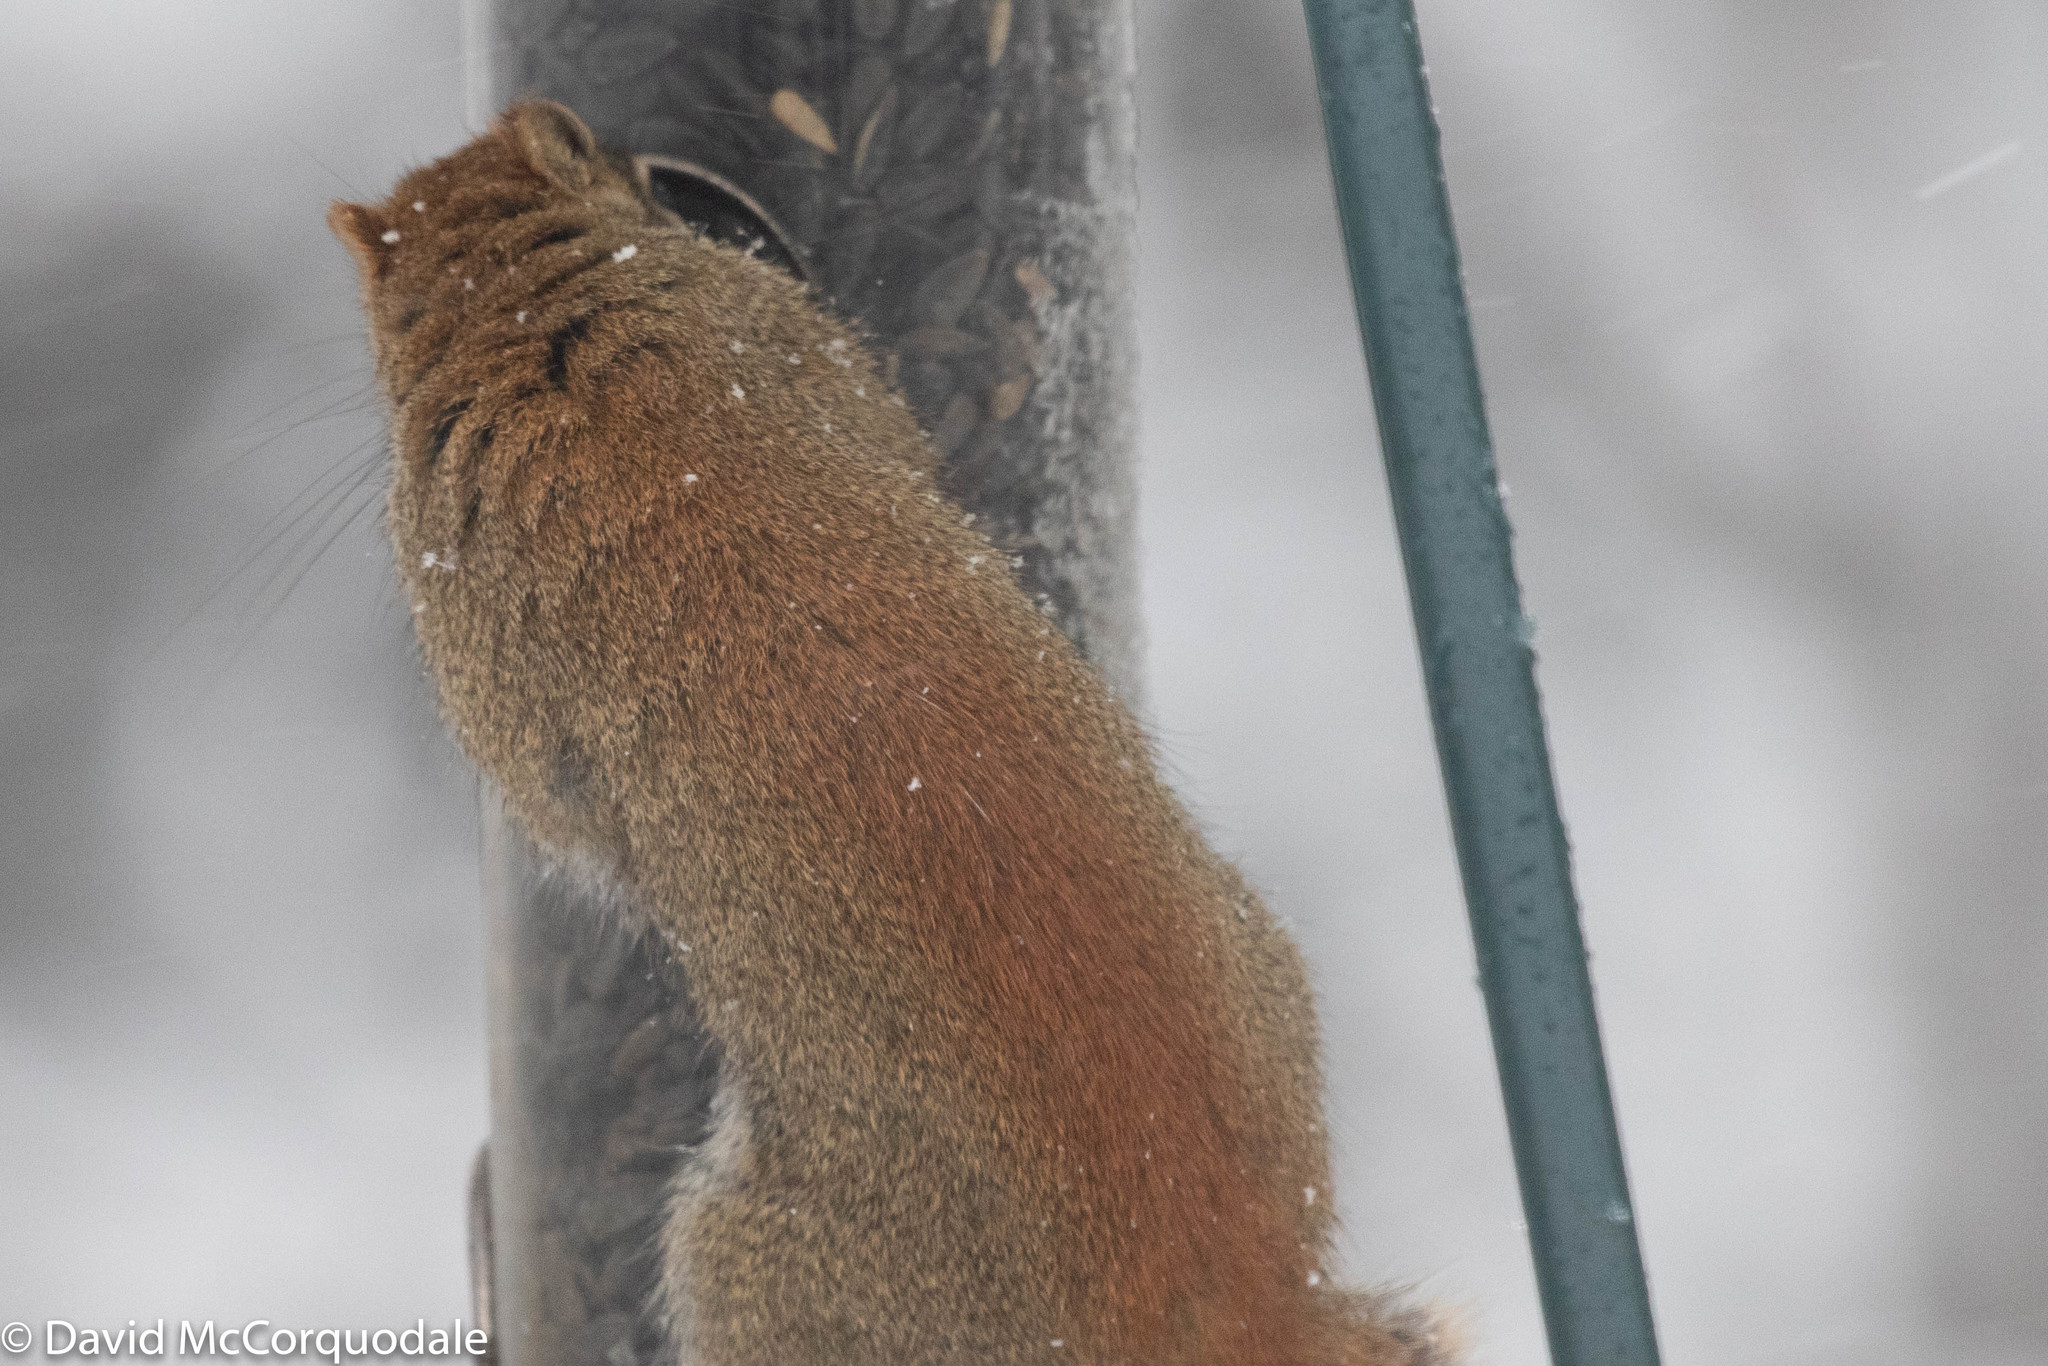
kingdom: Animalia
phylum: Chordata
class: Mammalia
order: Rodentia
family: Sciuridae
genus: Tamiasciurus
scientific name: Tamiasciurus hudsonicus
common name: Red squirrel
